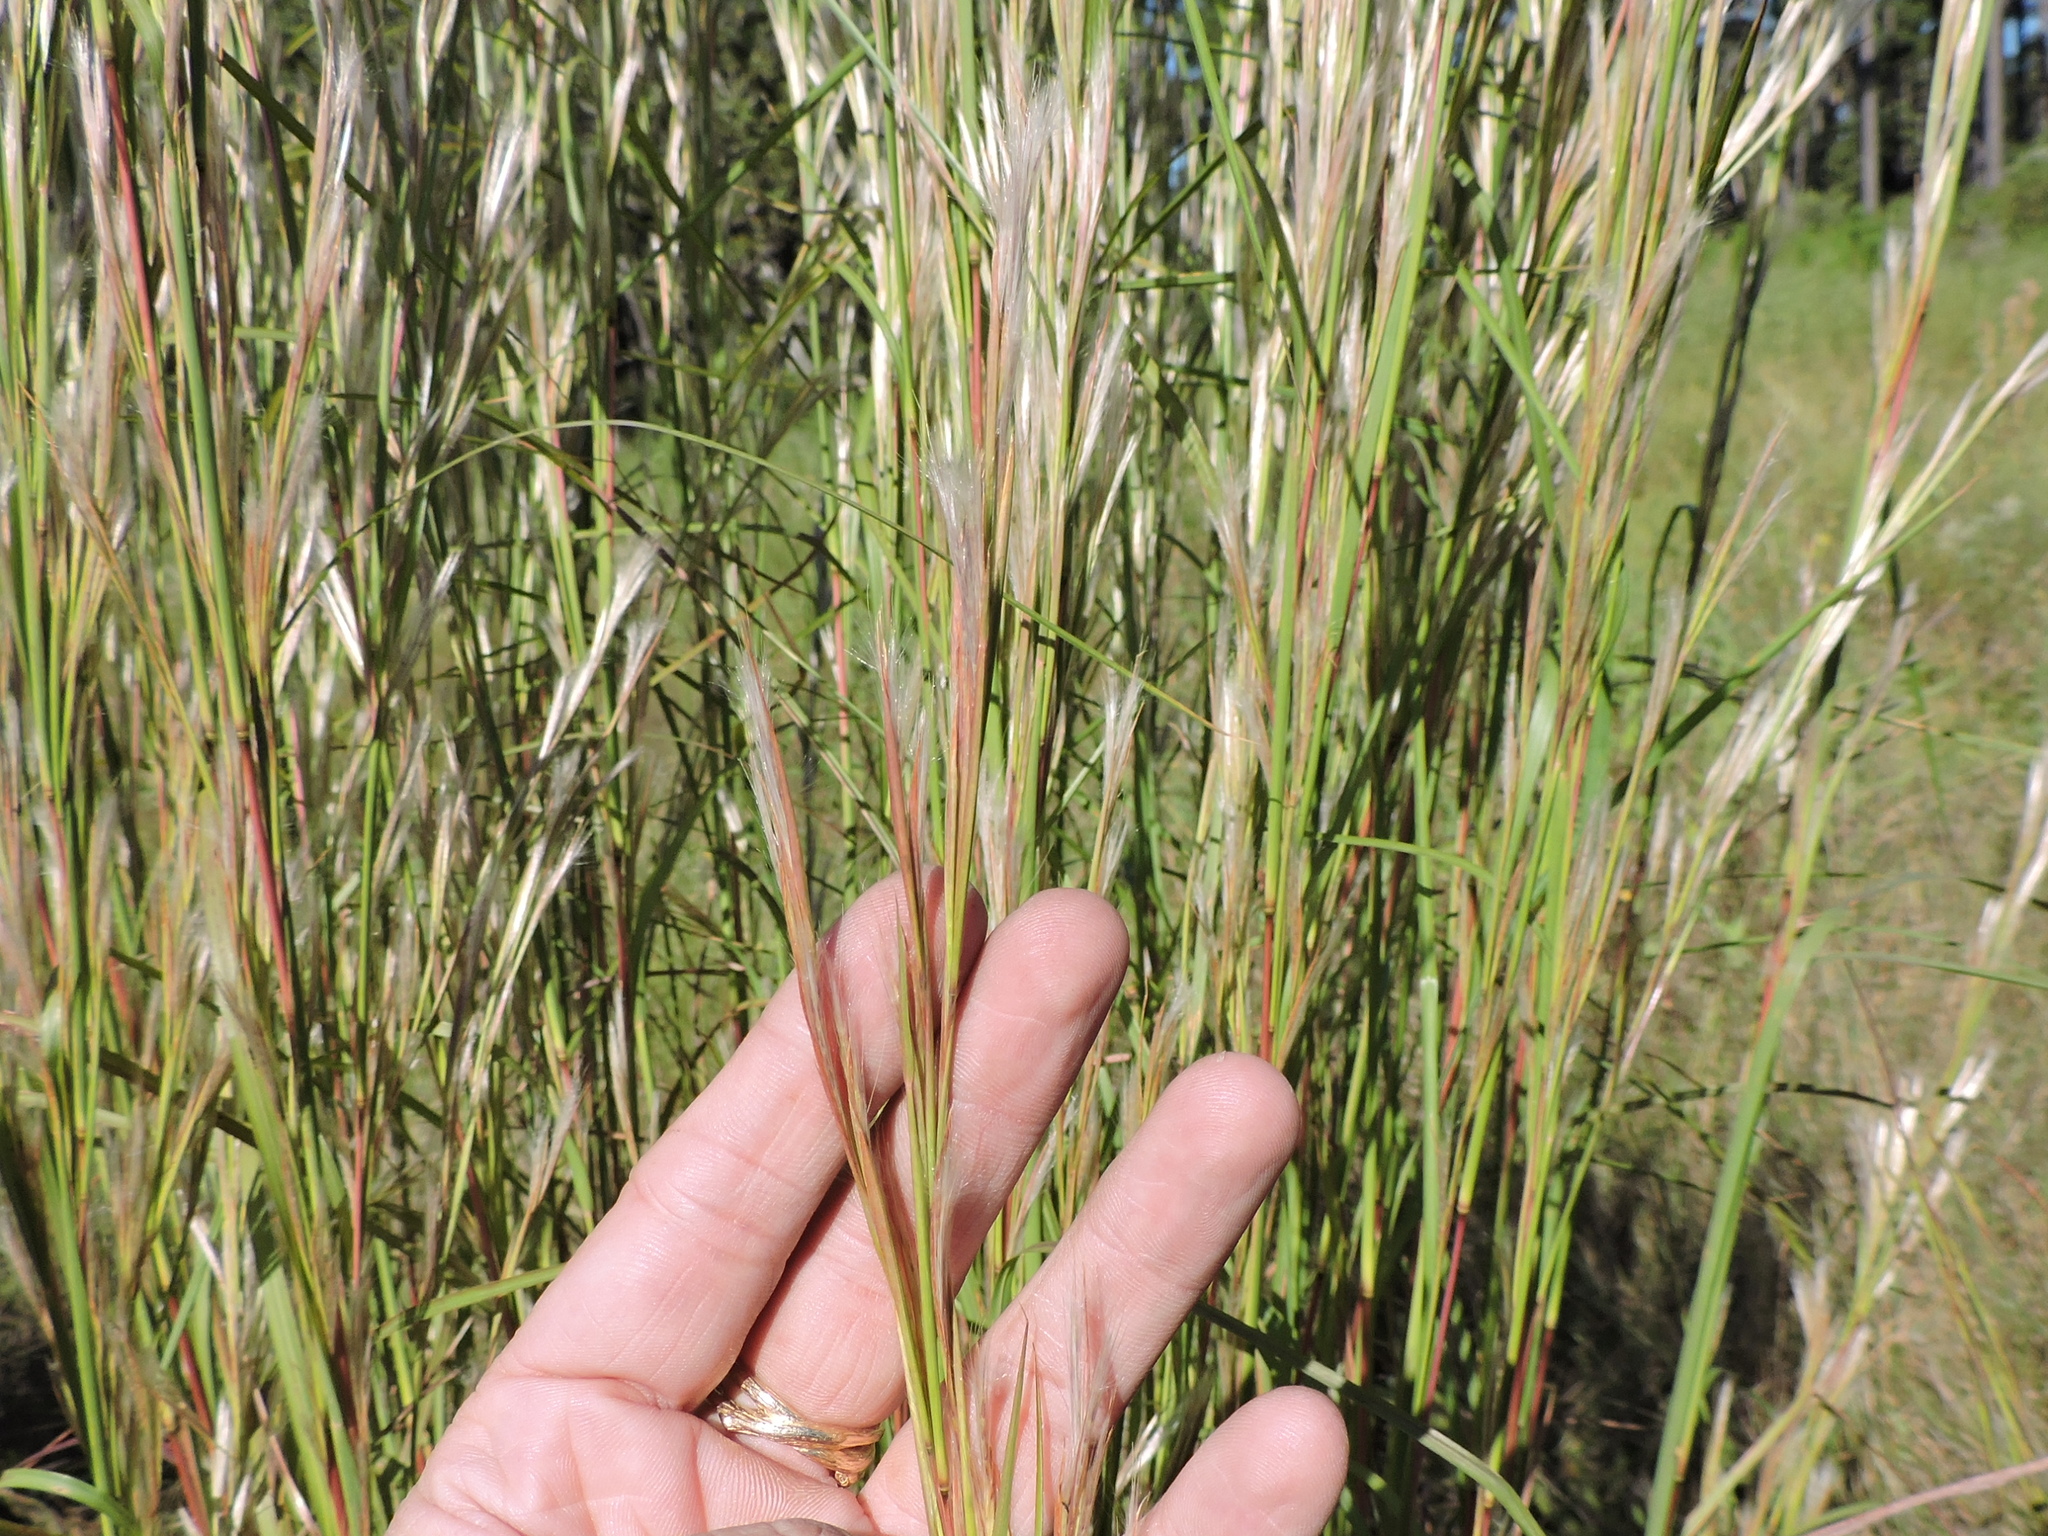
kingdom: Plantae
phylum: Tracheophyta
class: Liliopsida
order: Poales
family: Poaceae
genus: Andropogon
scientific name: Andropogon virginicus
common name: Broomsedge bluestem
